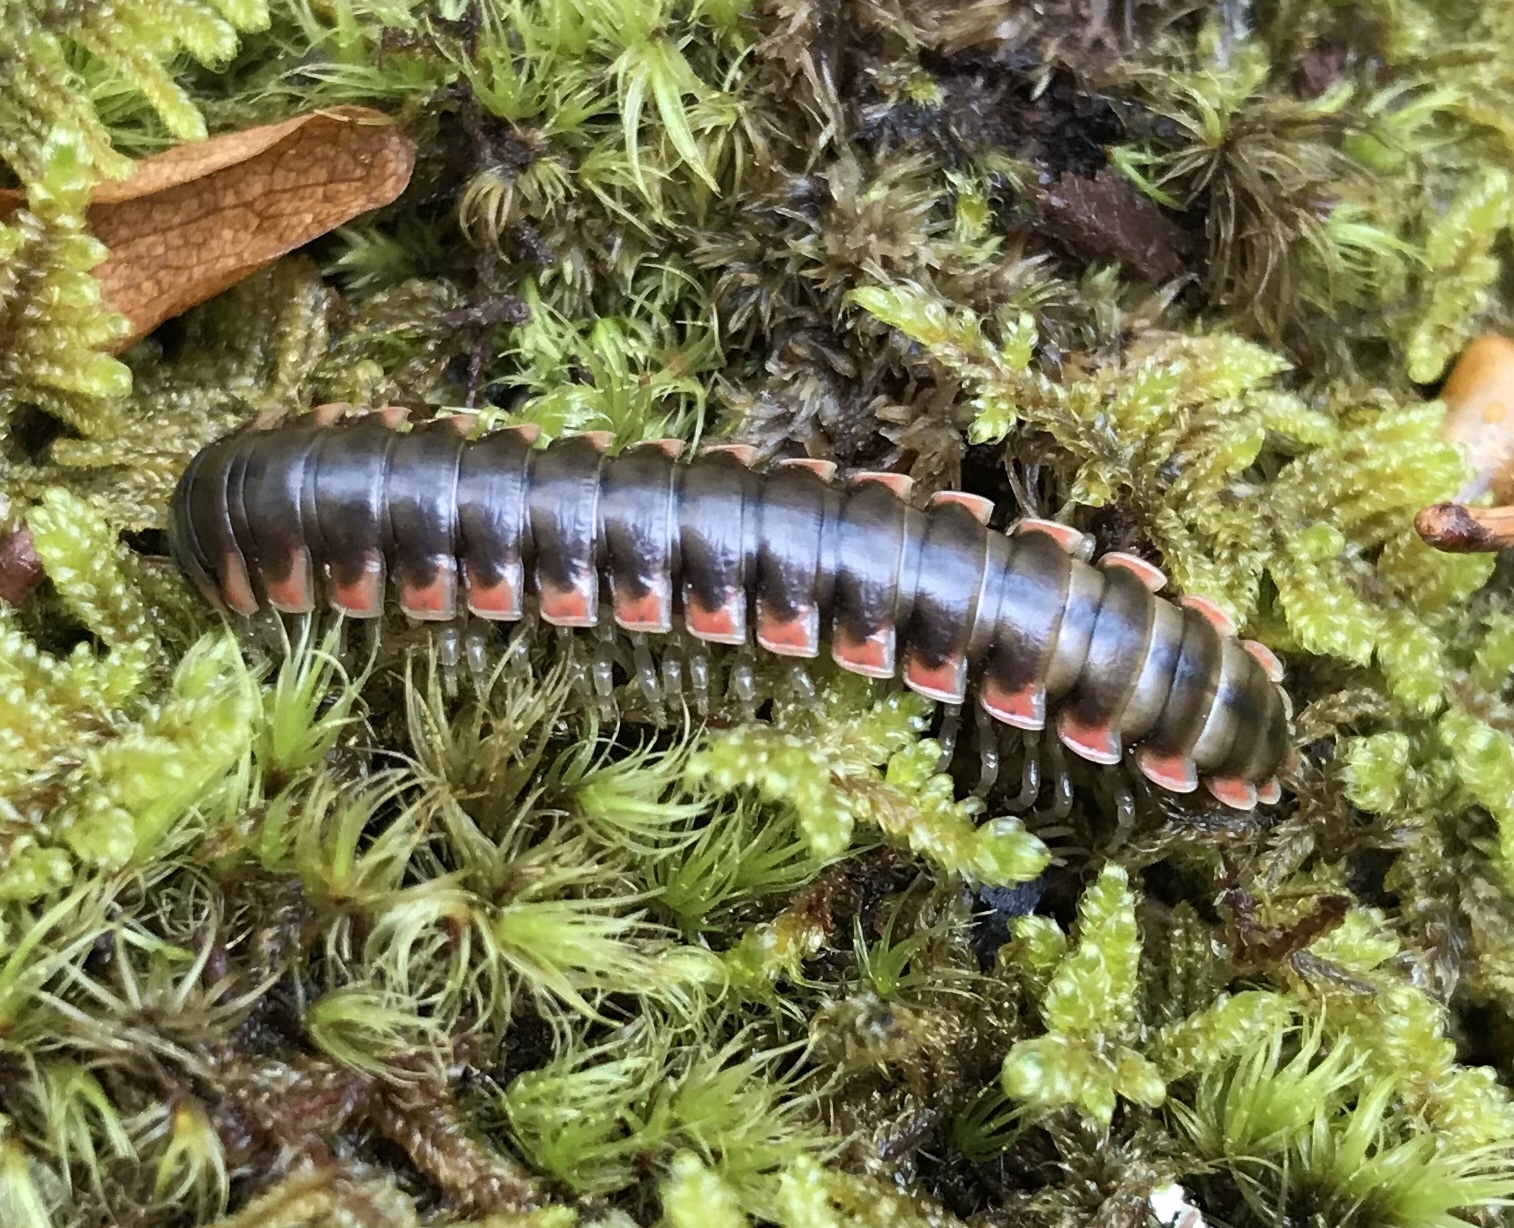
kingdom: Animalia
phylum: Arthropoda
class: Diplopoda
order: Polydesmida
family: Xystodesmidae
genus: Nannaria
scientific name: Nannaria ericacea
